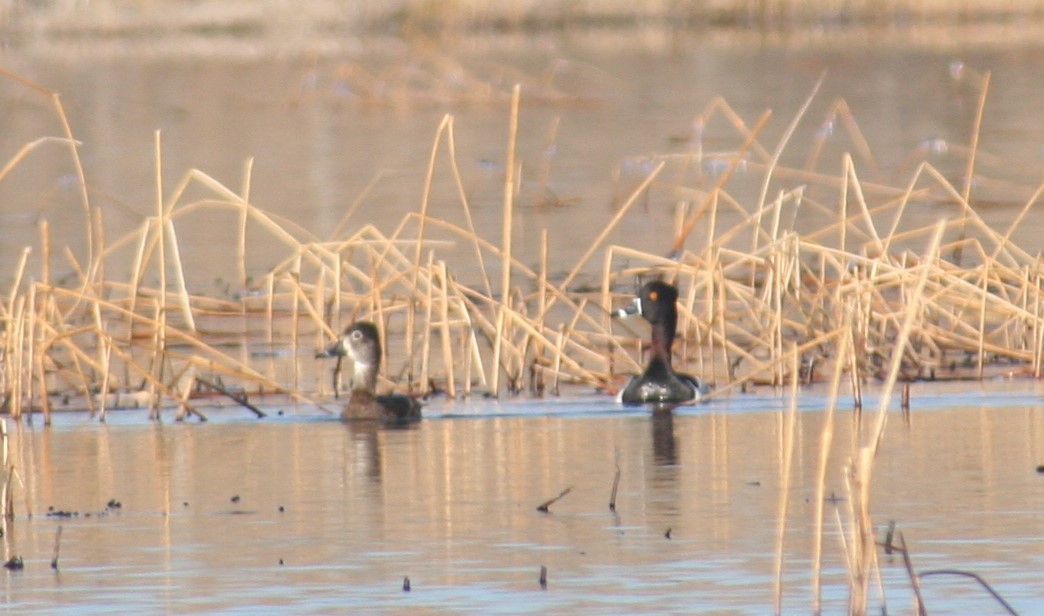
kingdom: Animalia
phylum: Chordata
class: Aves
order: Anseriformes
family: Anatidae
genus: Aythya
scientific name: Aythya collaris
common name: Ring-necked duck
